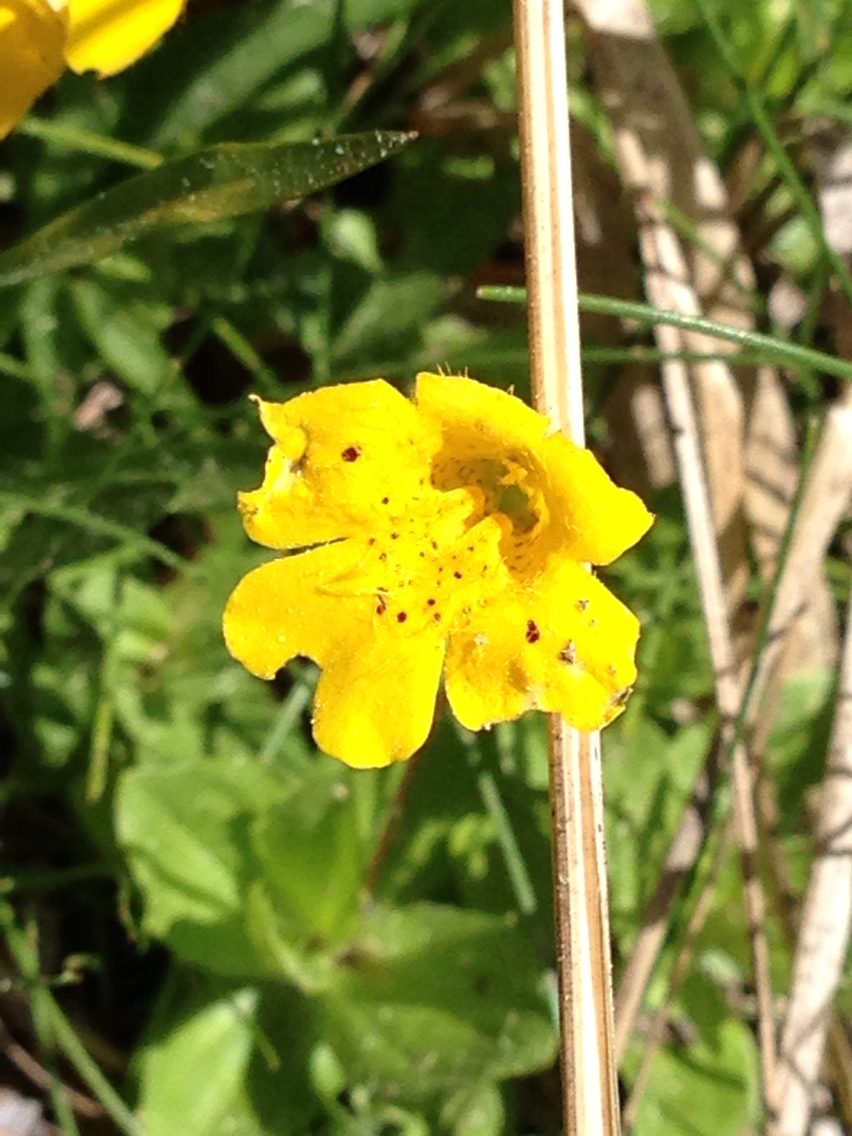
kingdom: Plantae
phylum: Tracheophyta
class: Magnoliopsida
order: Lamiales
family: Phrymaceae
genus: Erythranthe
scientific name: Erythranthe primuloides
